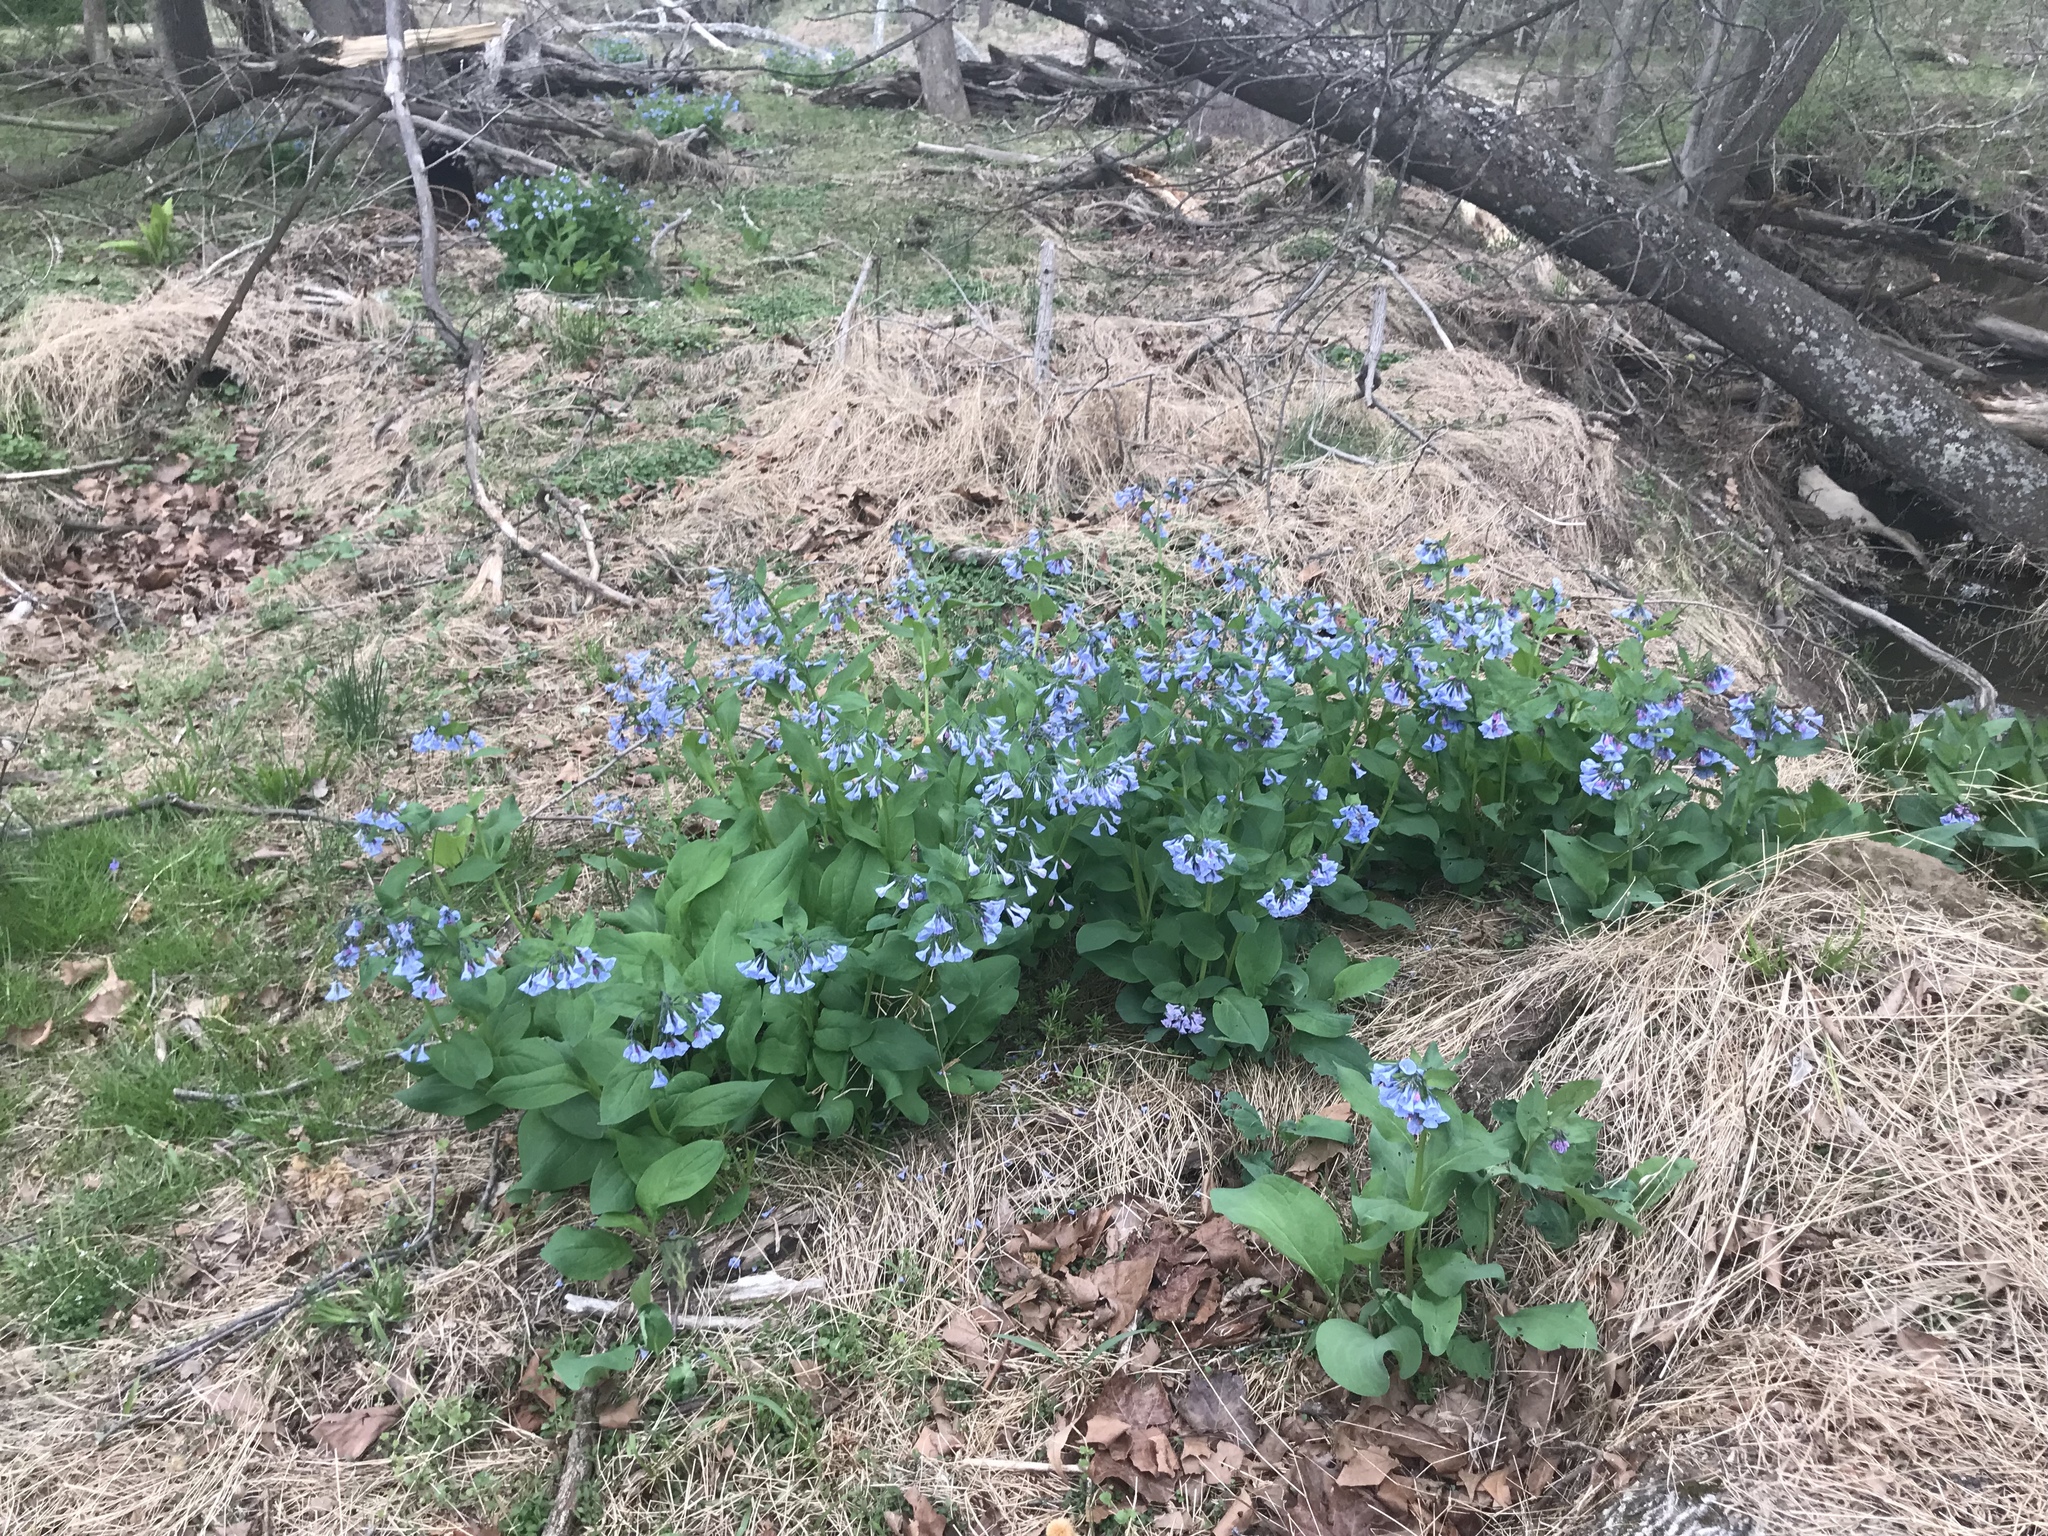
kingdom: Plantae
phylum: Tracheophyta
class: Magnoliopsida
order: Boraginales
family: Boraginaceae
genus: Mertensia
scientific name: Mertensia virginica
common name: Virginia bluebells
